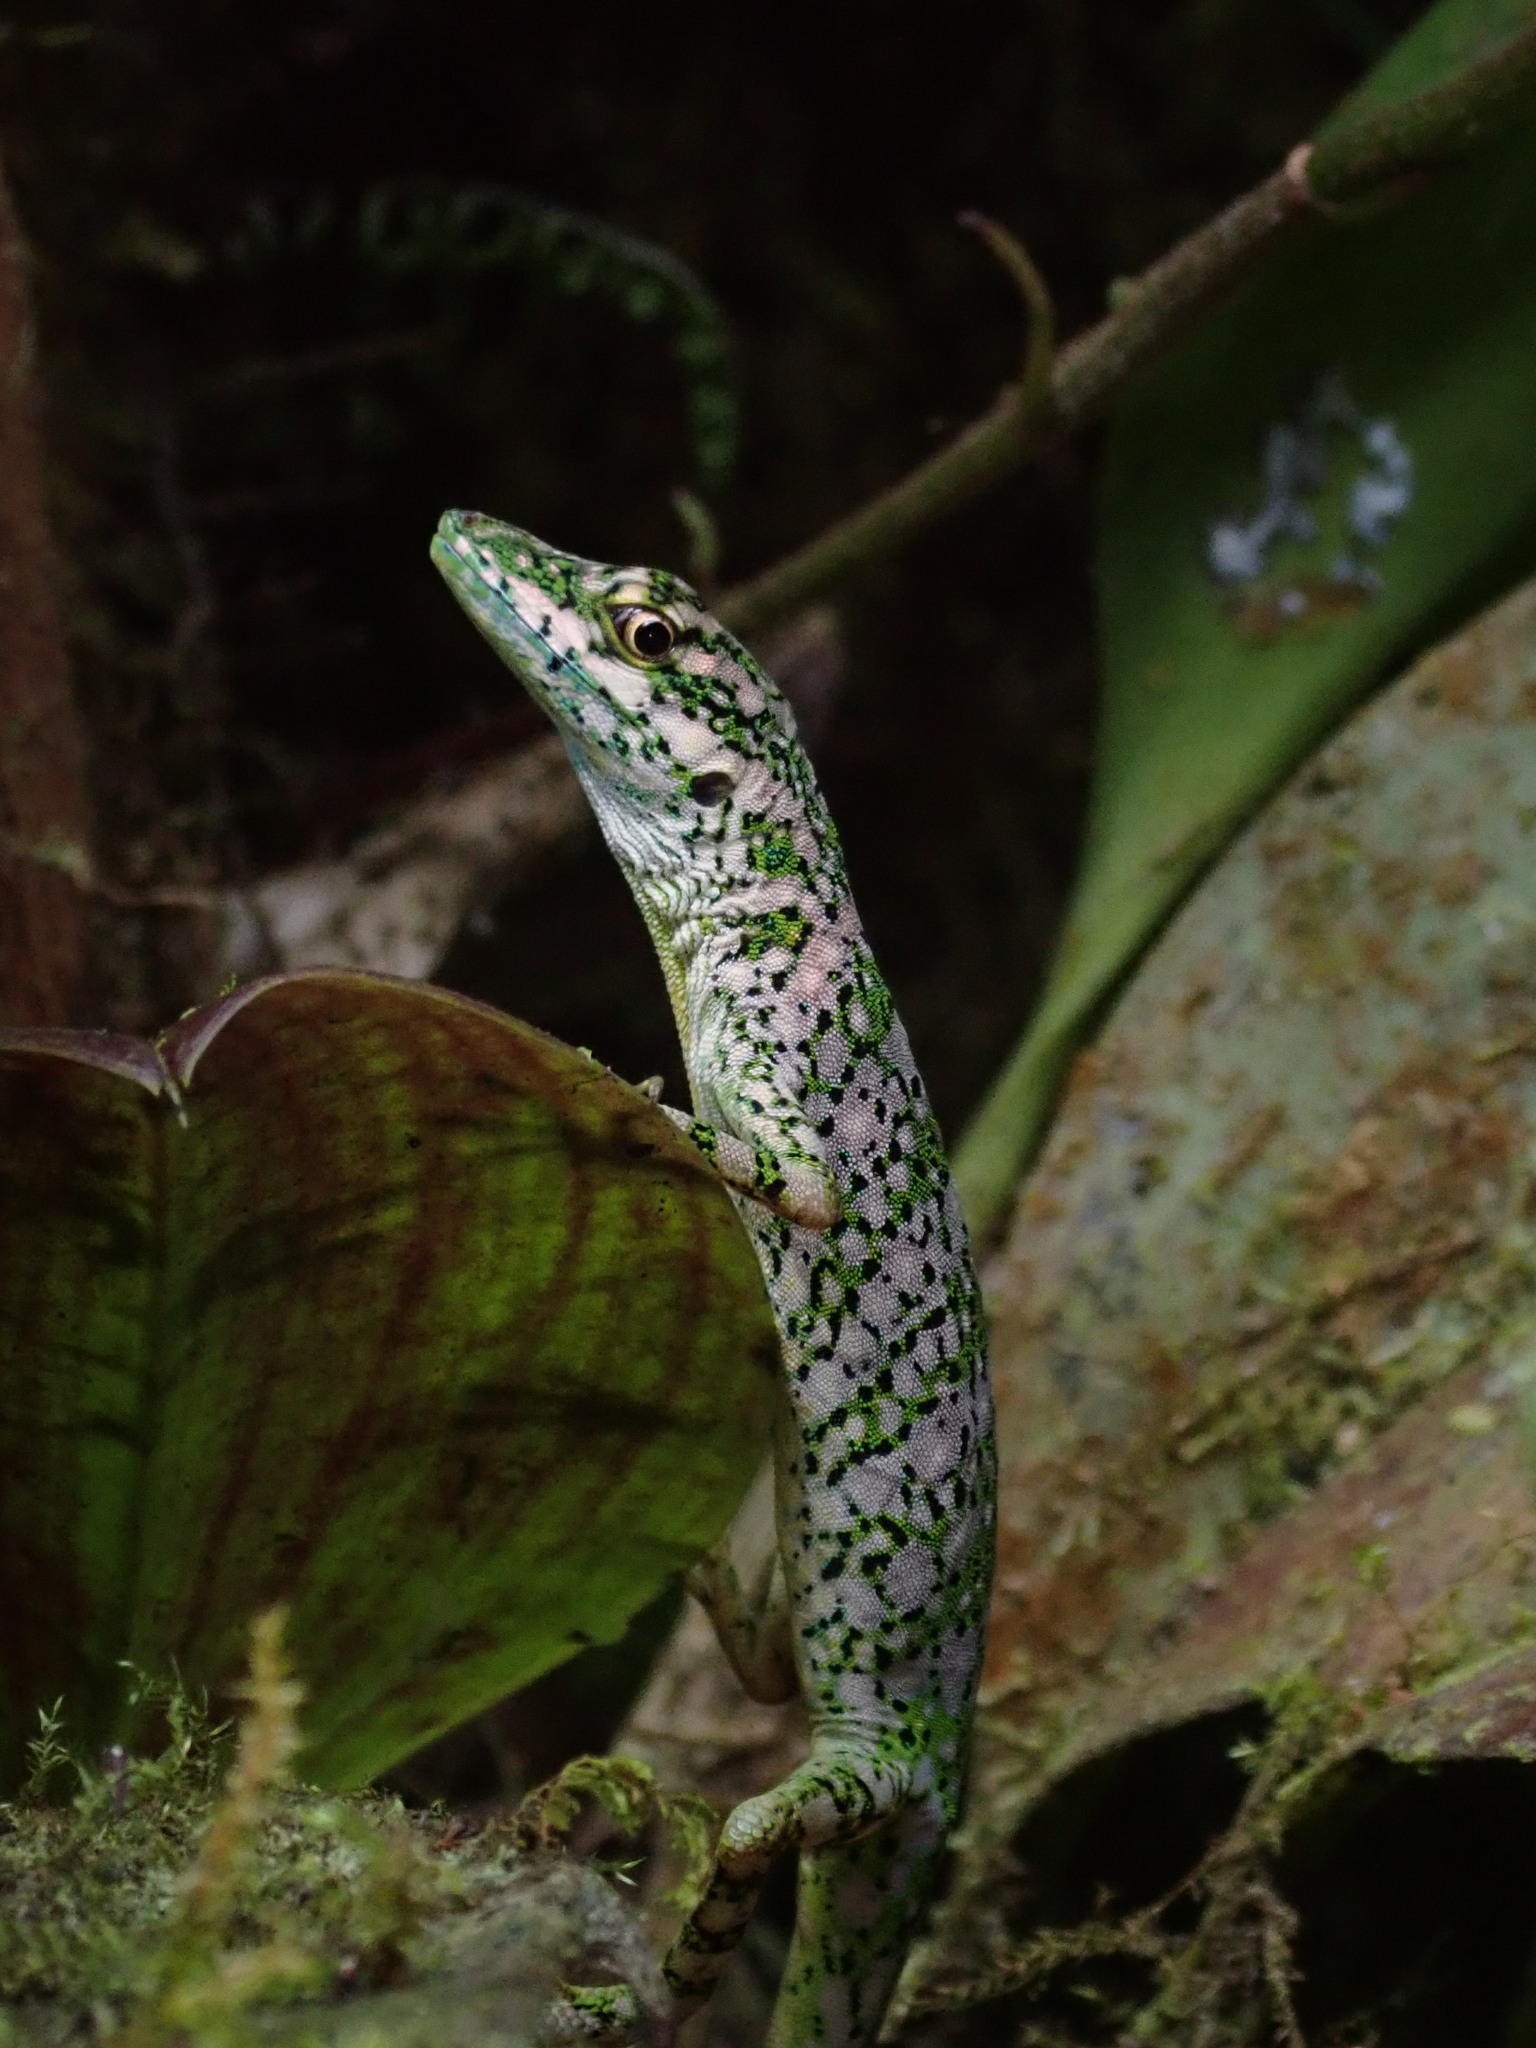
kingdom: Animalia
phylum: Chordata
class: Squamata
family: Dactyloidae
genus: Anolis
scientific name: Anolis gemmosus
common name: O'shaughnessy's anole
